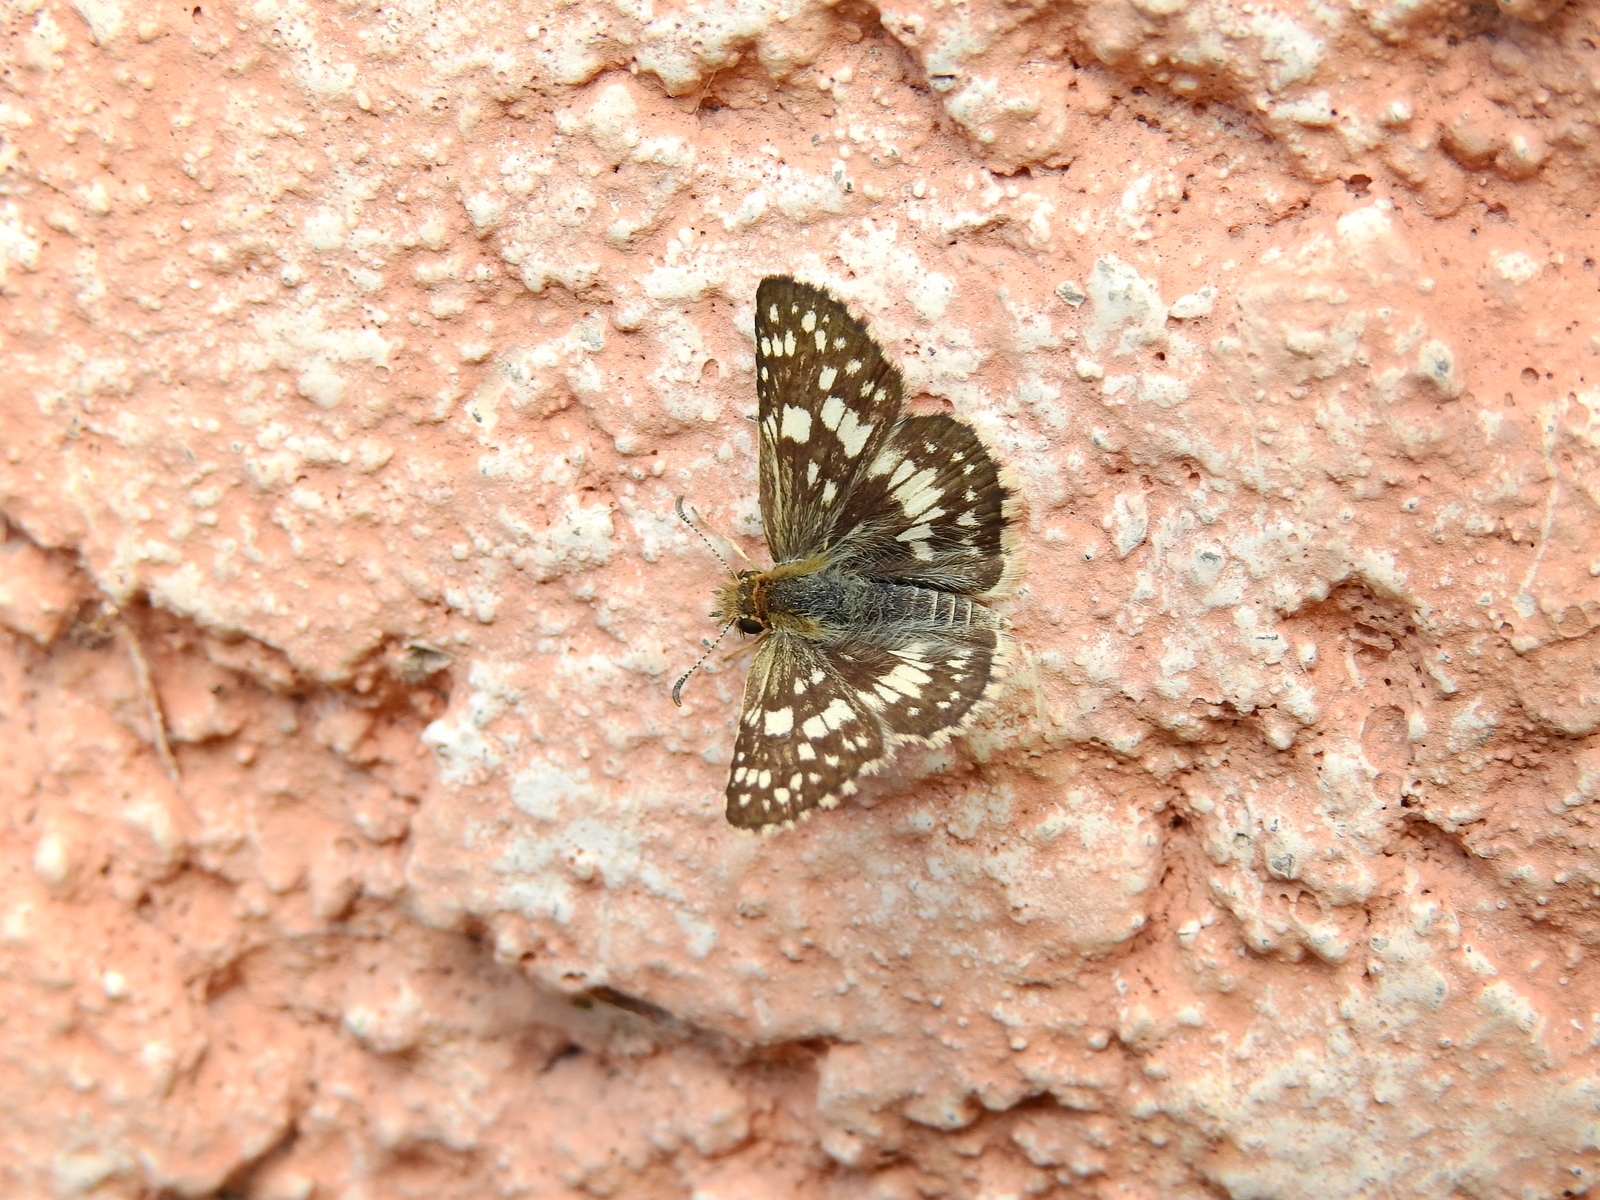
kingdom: Animalia
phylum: Arthropoda
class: Insecta
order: Lepidoptera
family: Hesperiidae
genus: Burnsius
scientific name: Burnsius orcynoides
